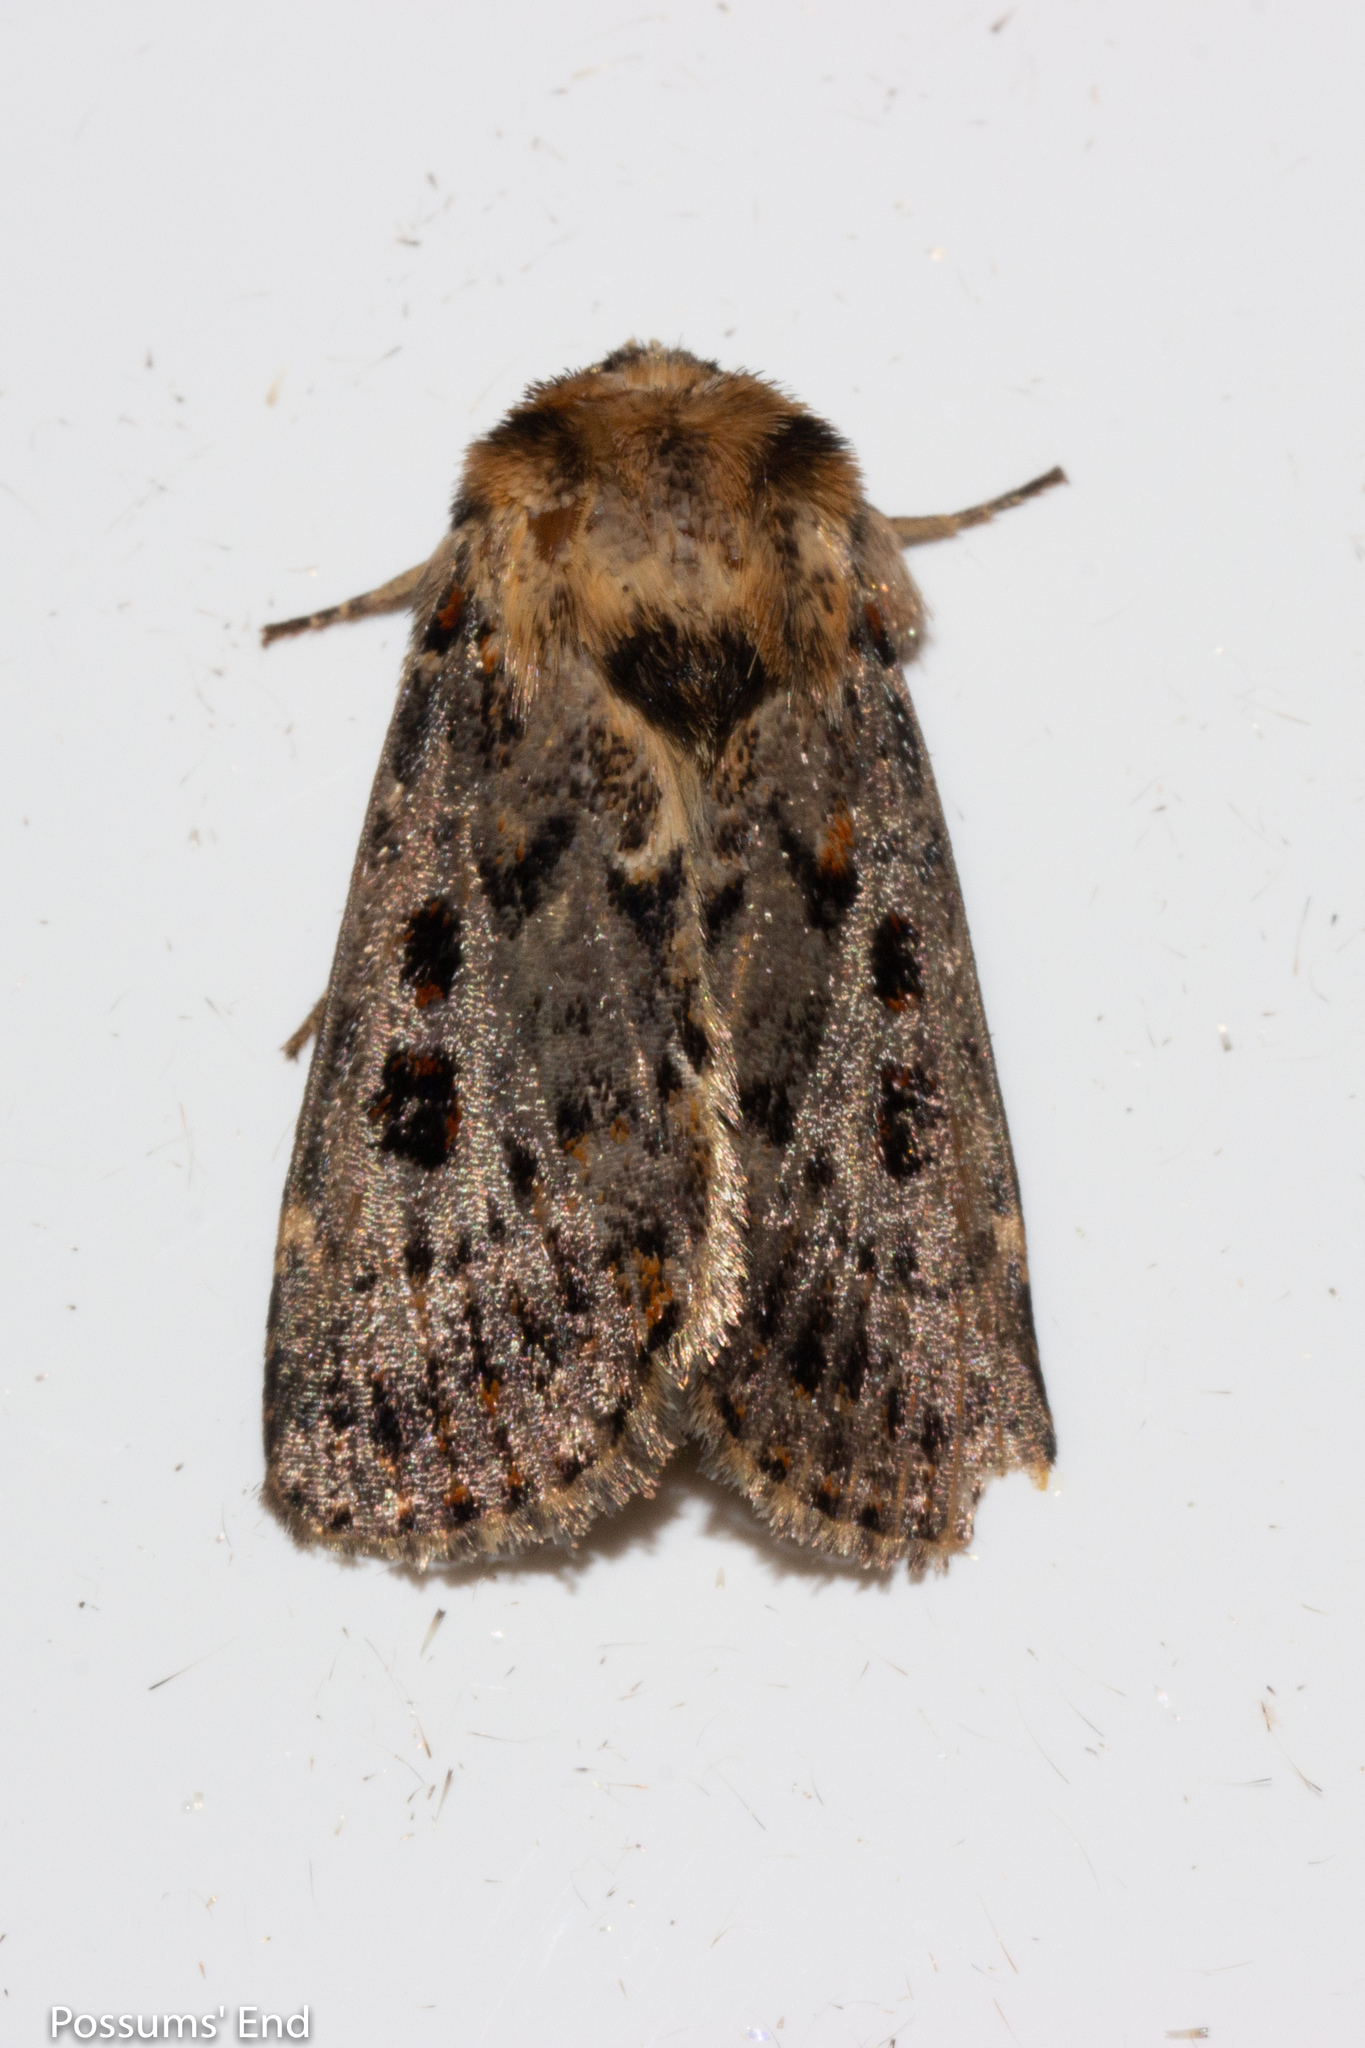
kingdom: Animalia
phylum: Arthropoda
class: Insecta
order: Lepidoptera
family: Noctuidae
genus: Proteuxoa
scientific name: Proteuxoa sanguinipuncta
